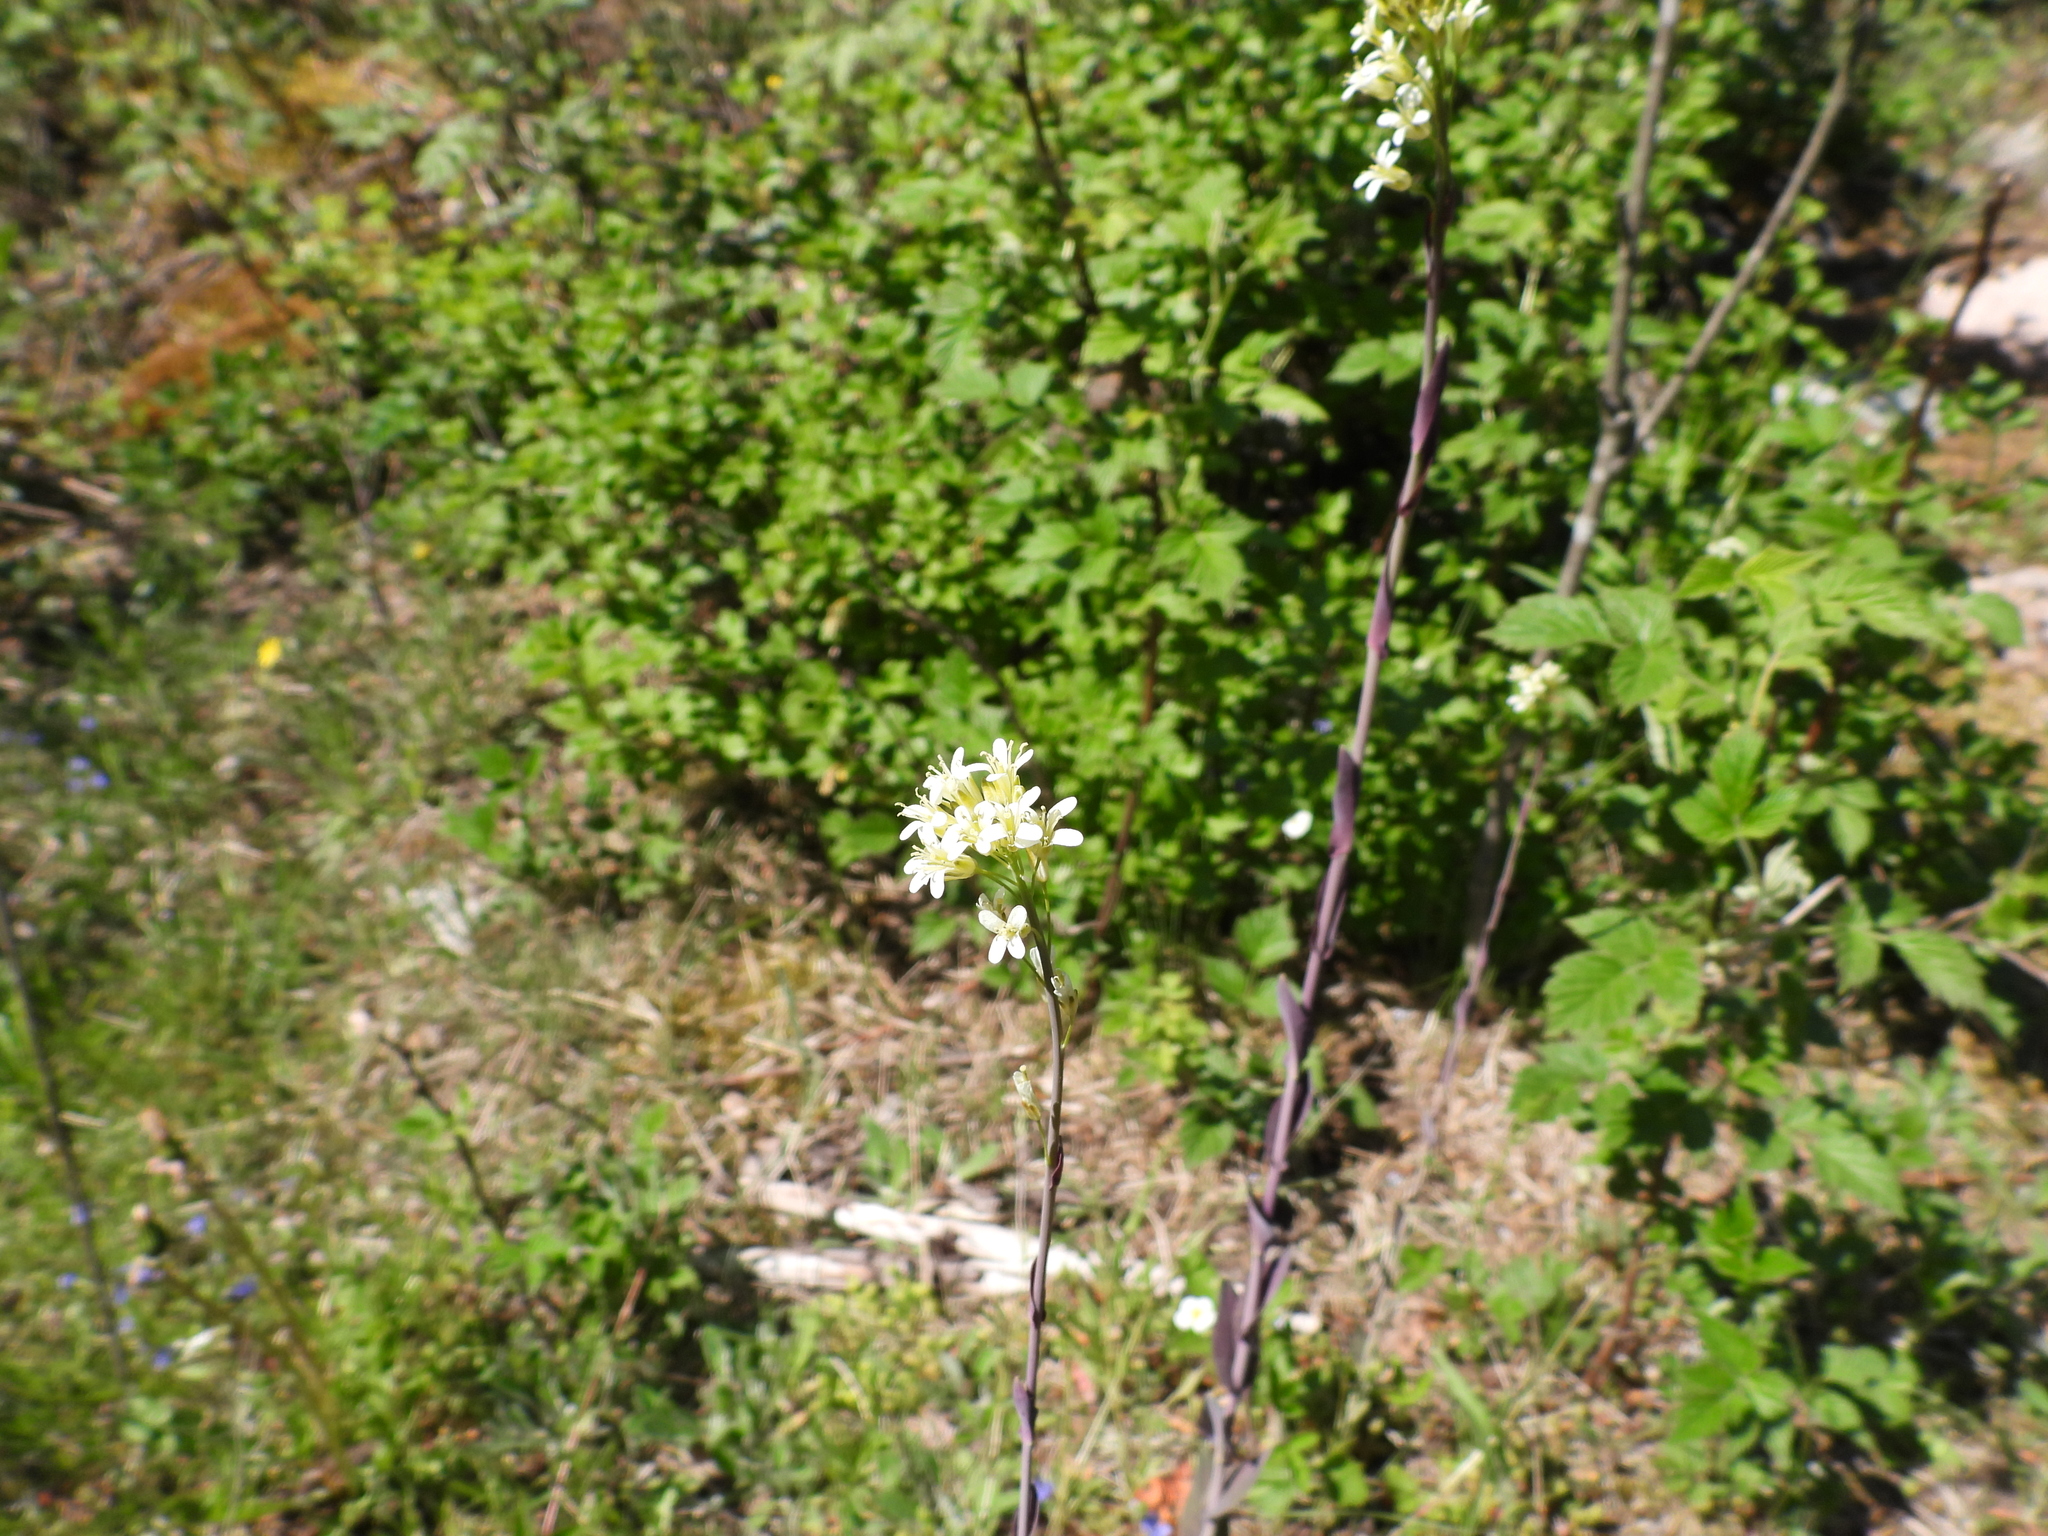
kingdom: Plantae
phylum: Tracheophyta
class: Magnoliopsida
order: Brassicales
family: Brassicaceae
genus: Turritis
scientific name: Turritis glabra
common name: Tower rockcress
